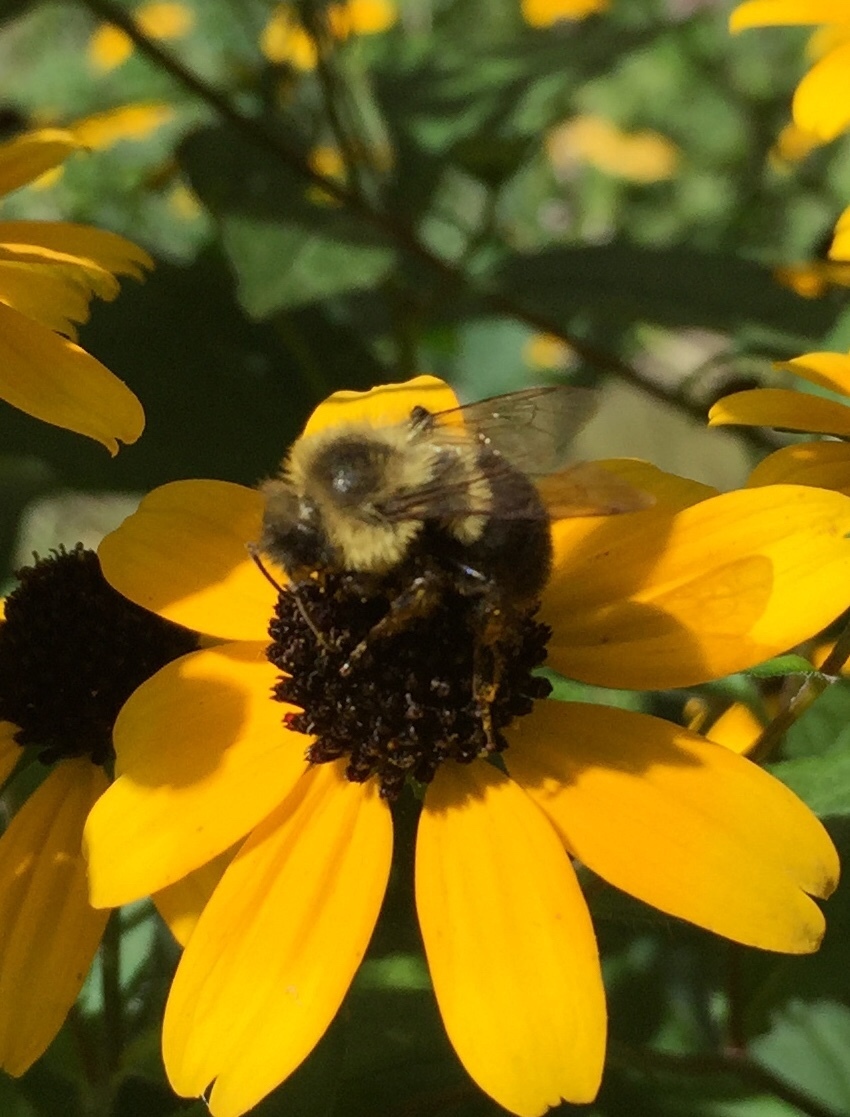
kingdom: Animalia
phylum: Arthropoda
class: Insecta
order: Hymenoptera
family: Apidae
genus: Bombus
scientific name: Bombus impatiens
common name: Common eastern bumble bee
